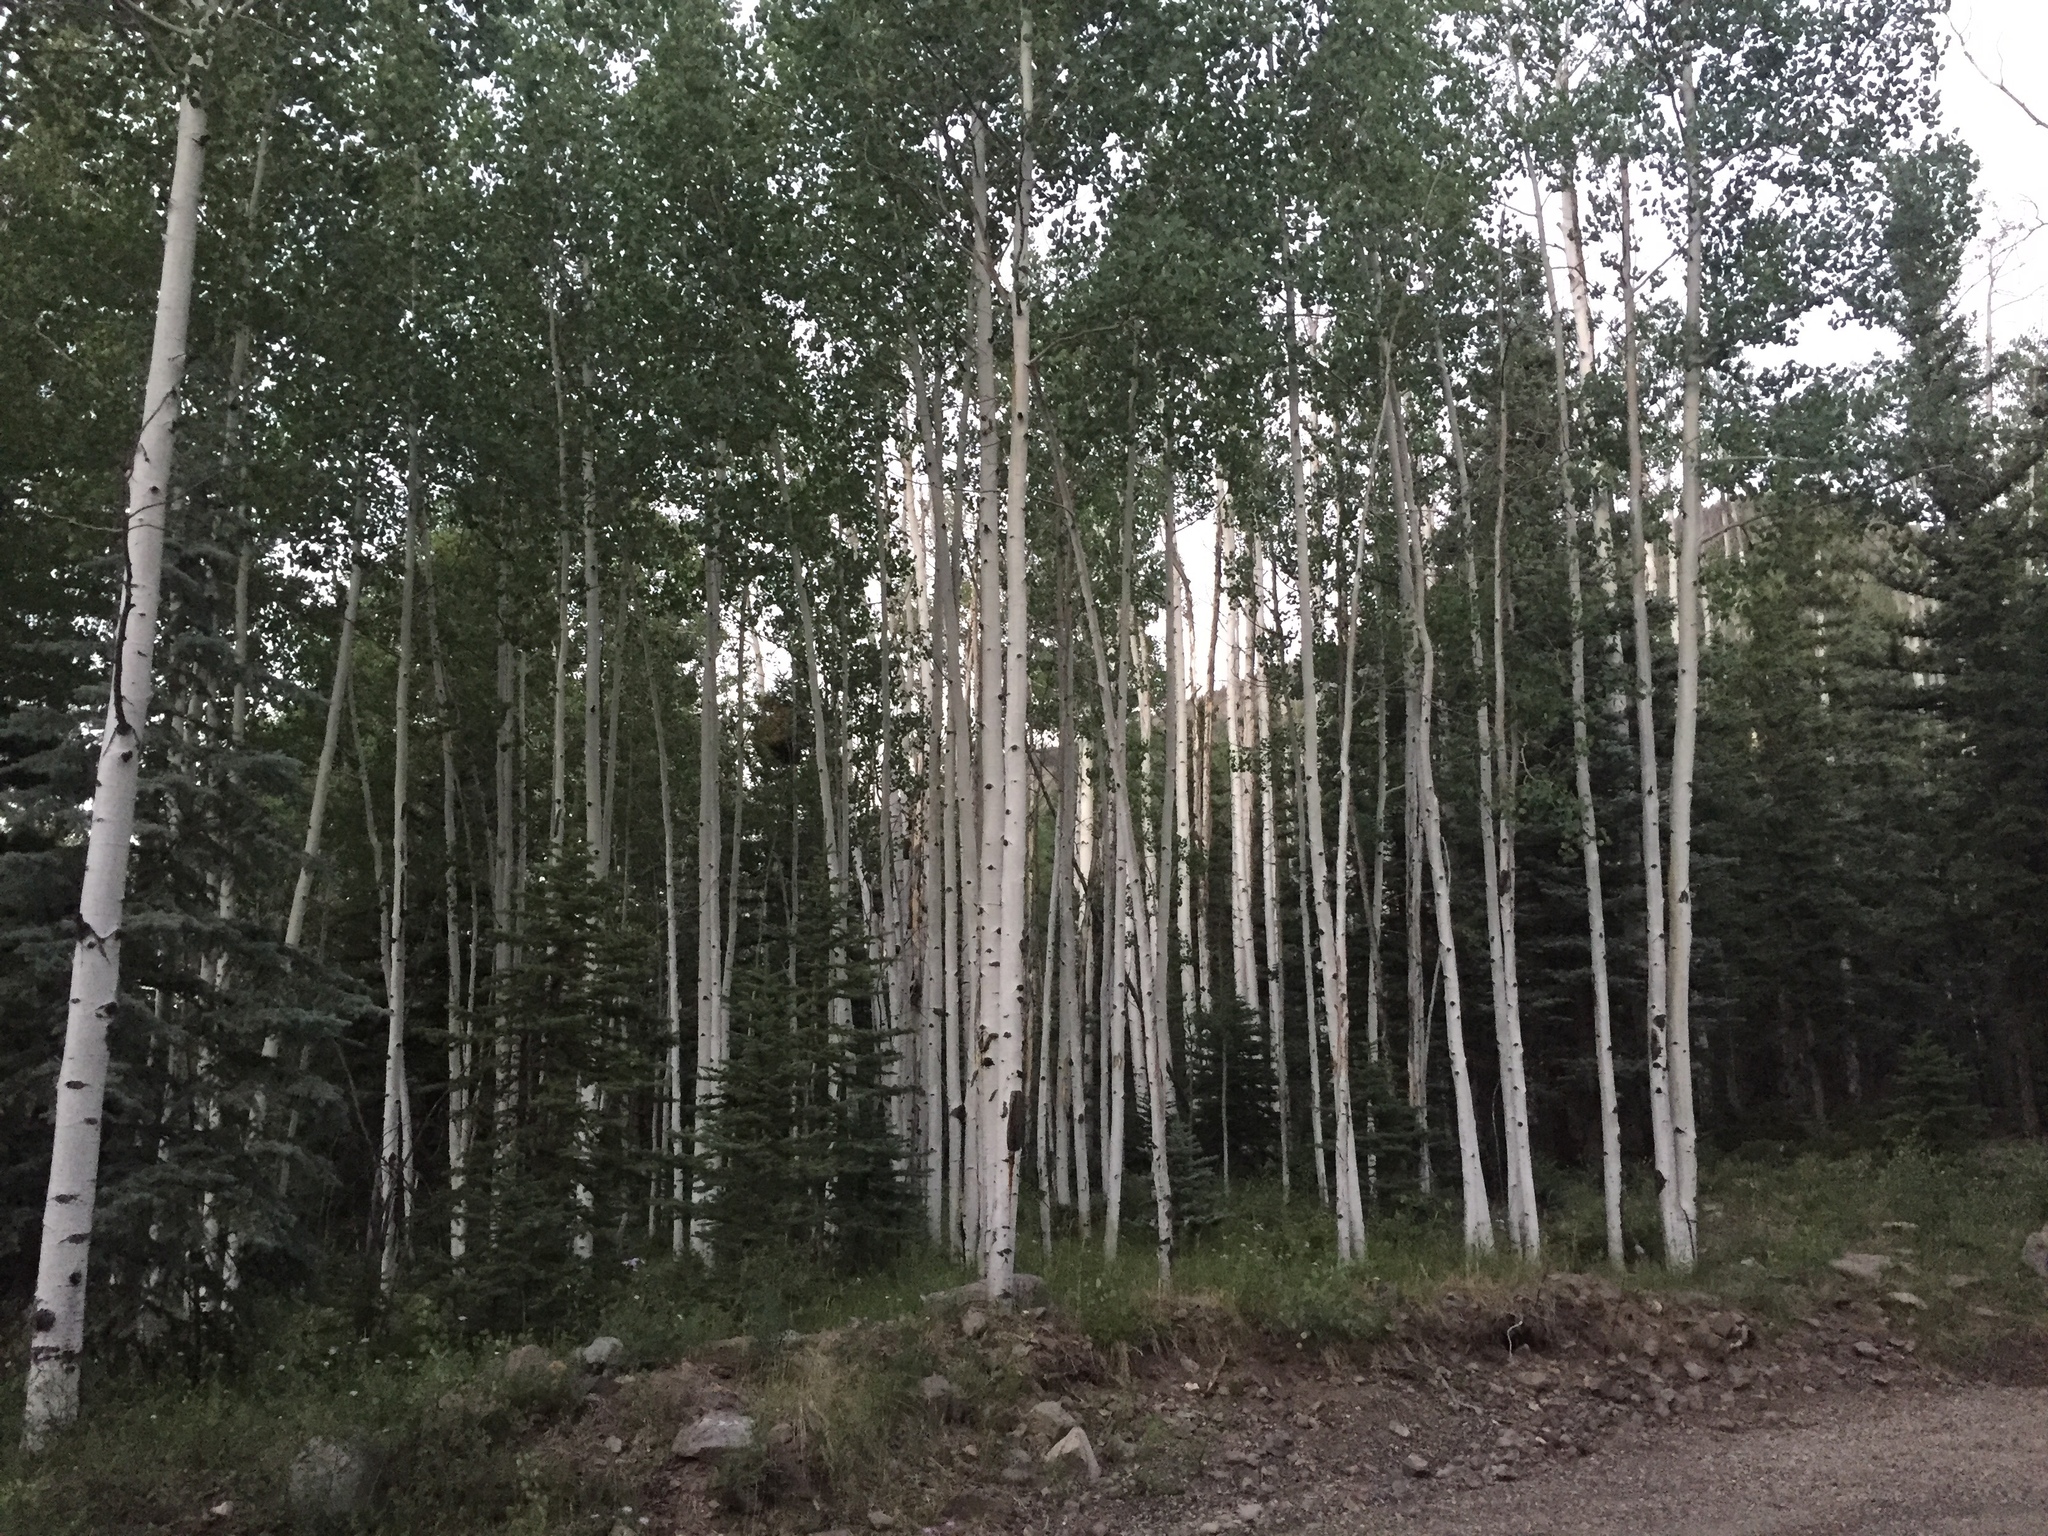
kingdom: Plantae
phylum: Tracheophyta
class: Magnoliopsida
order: Malpighiales
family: Salicaceae
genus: Populus
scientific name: Populus tremuloides
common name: Quaking aspen
